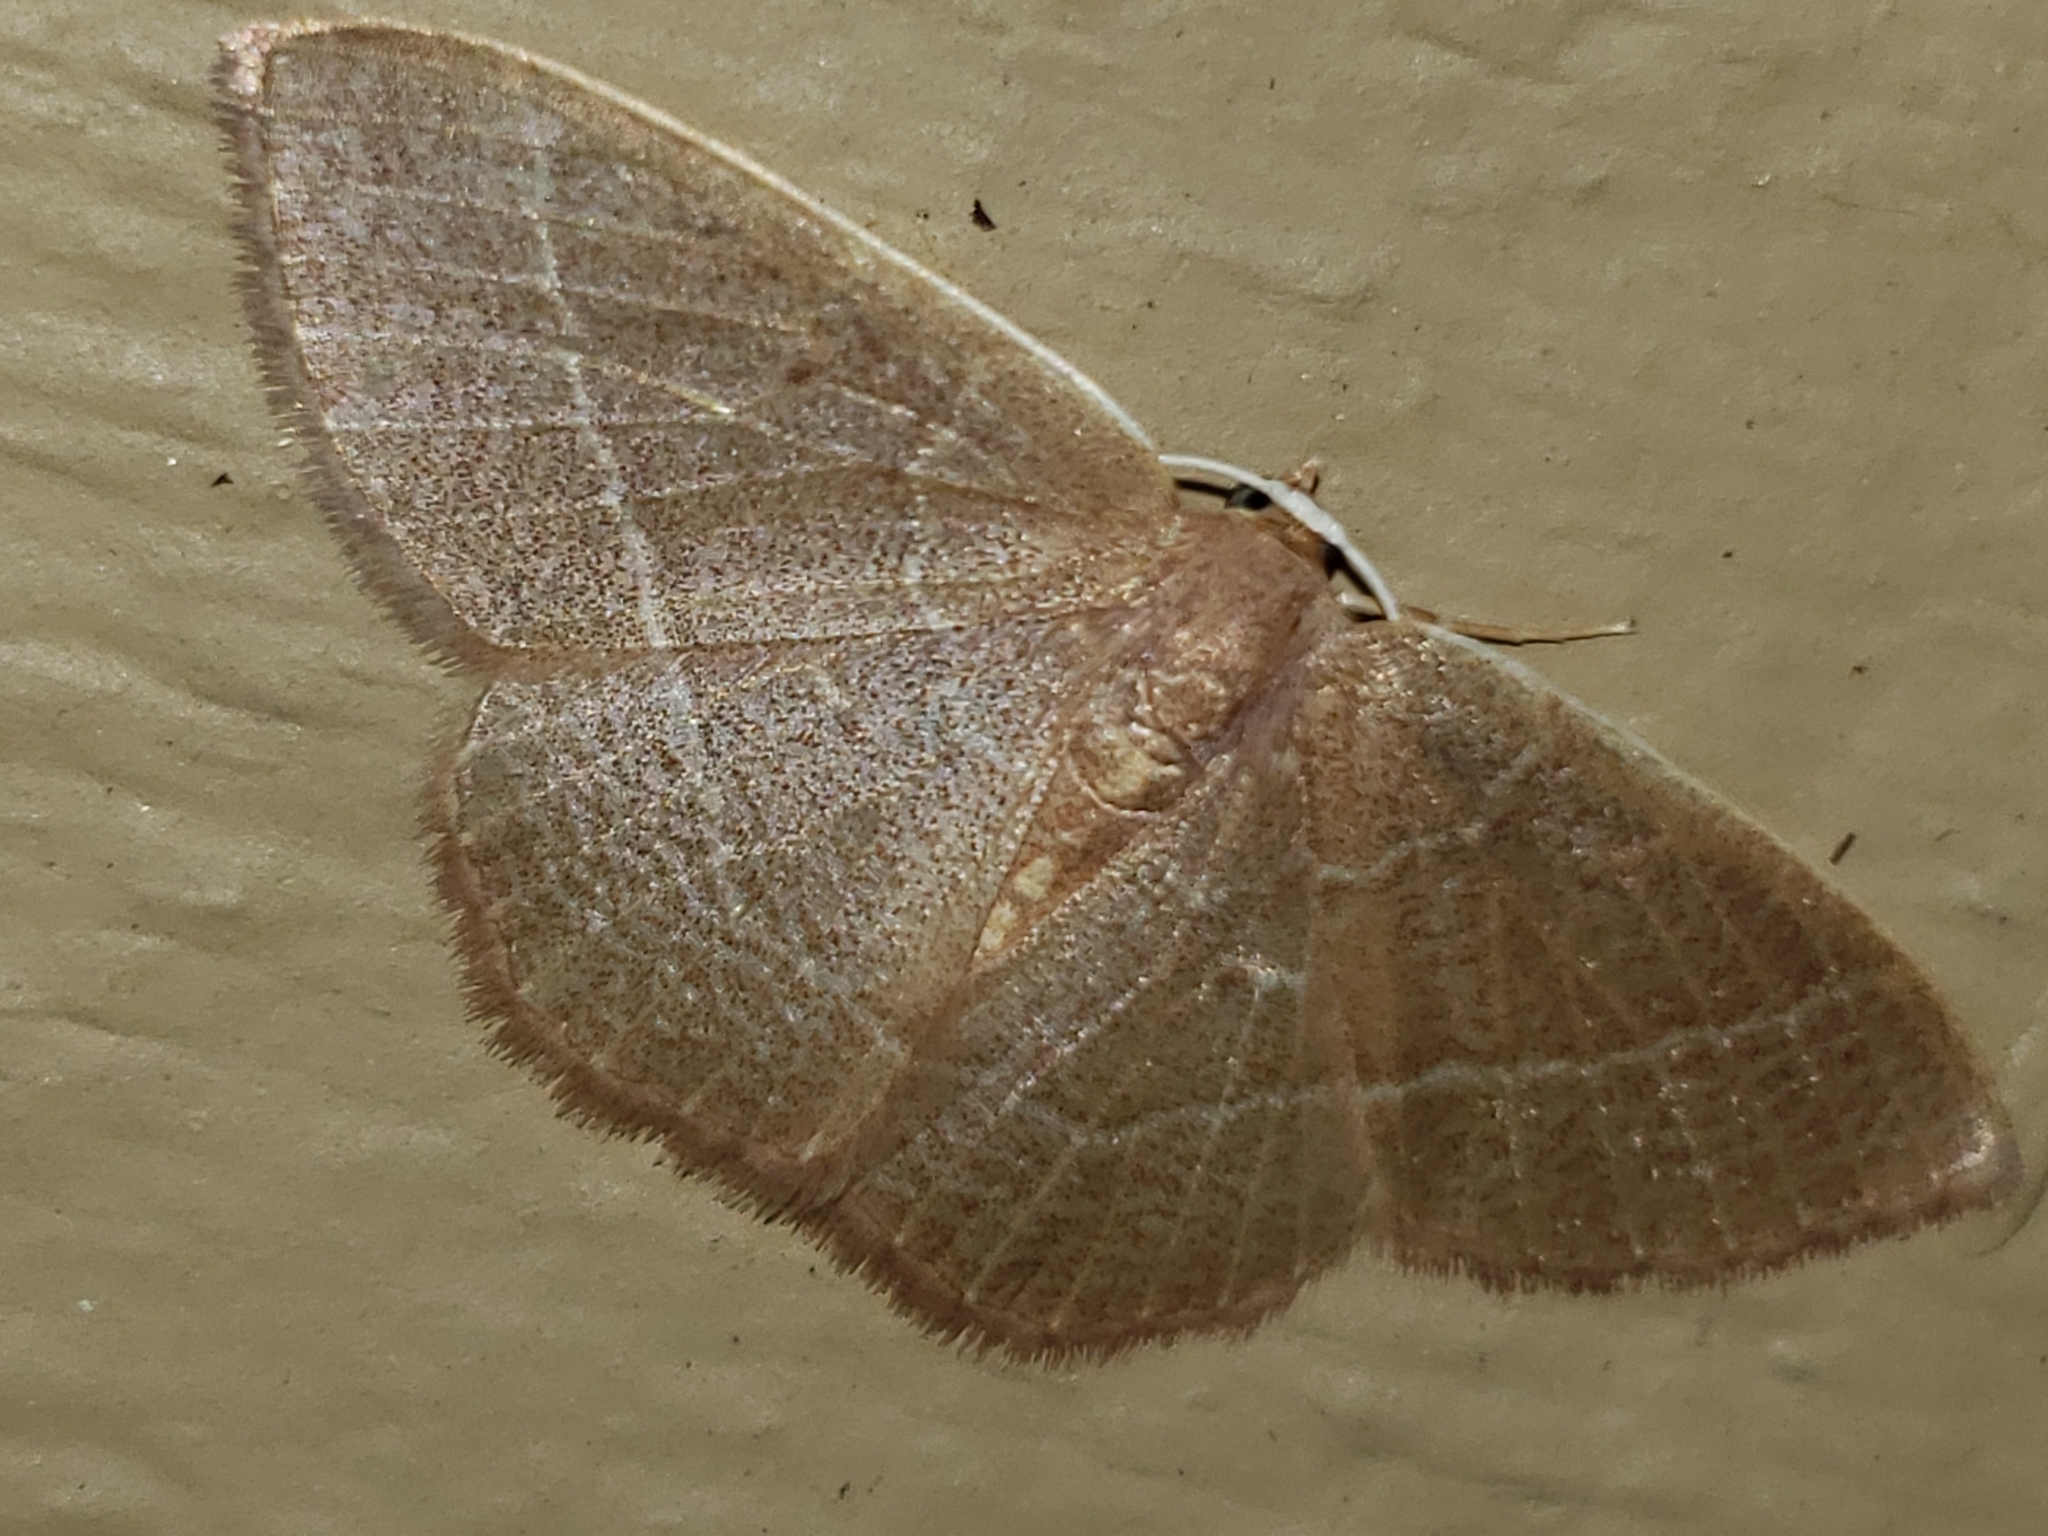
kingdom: Animalia
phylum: Arthropoda
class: Insecta
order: Lepidoptera
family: Geometridae
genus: Nemoria
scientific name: Nemoria bistriaria
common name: Red-fringed emerald
